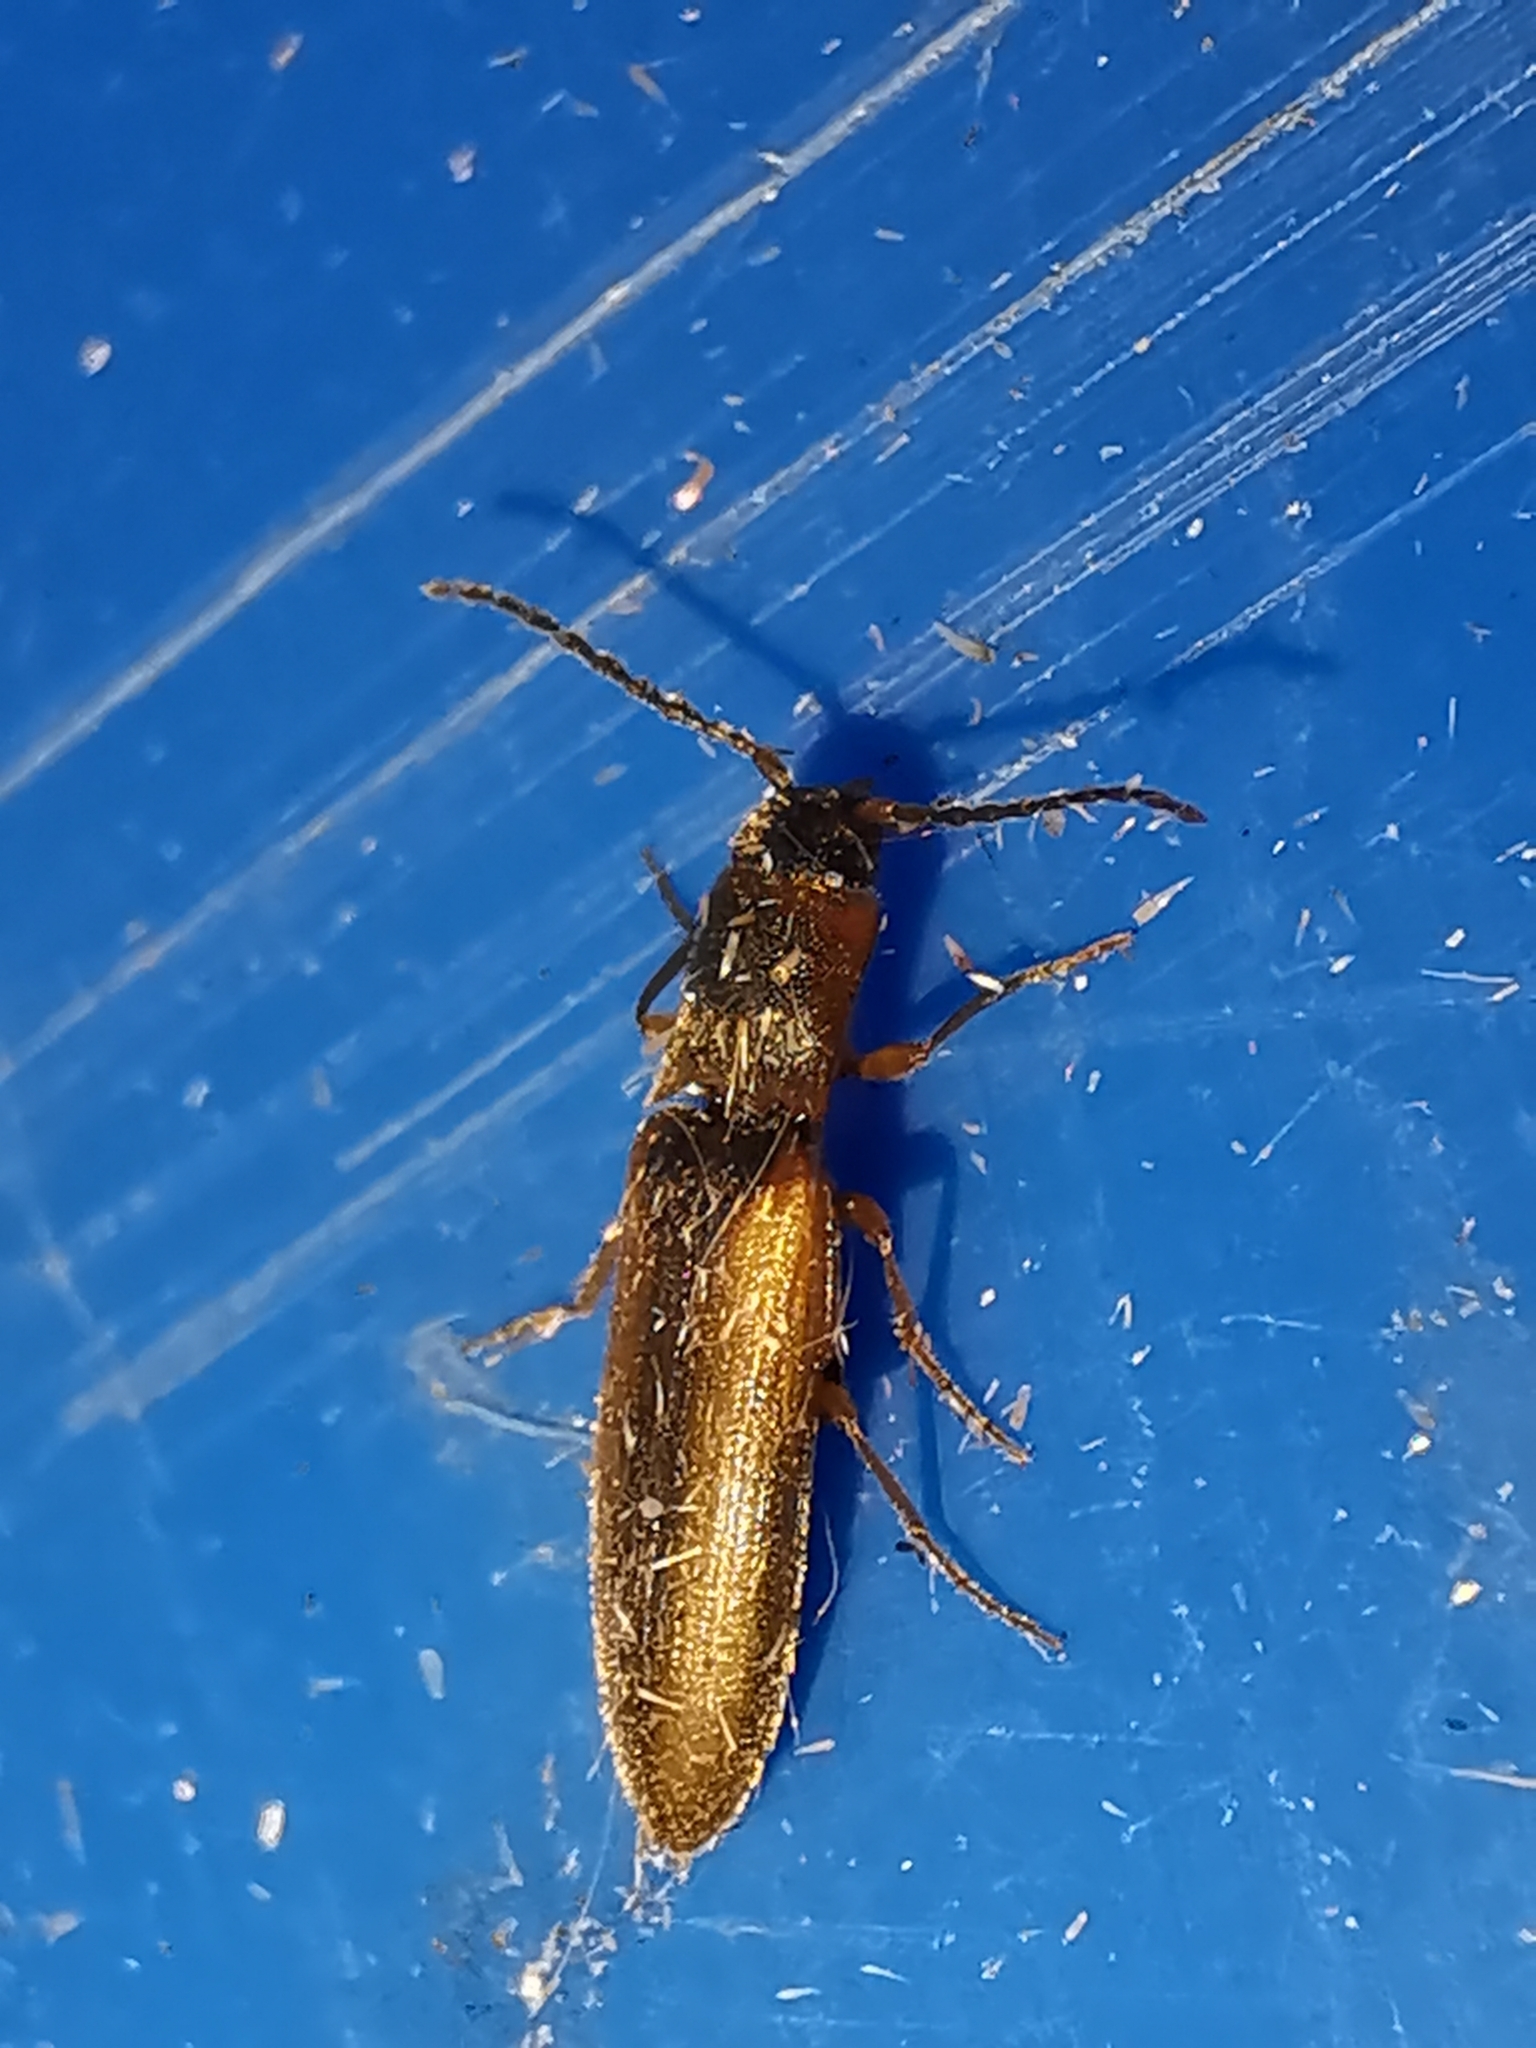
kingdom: Animalia
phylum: Arthropoda
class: Insecta
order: Coleoptera
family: Elateridae
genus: Dalopius
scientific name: Dalopius marginatus
